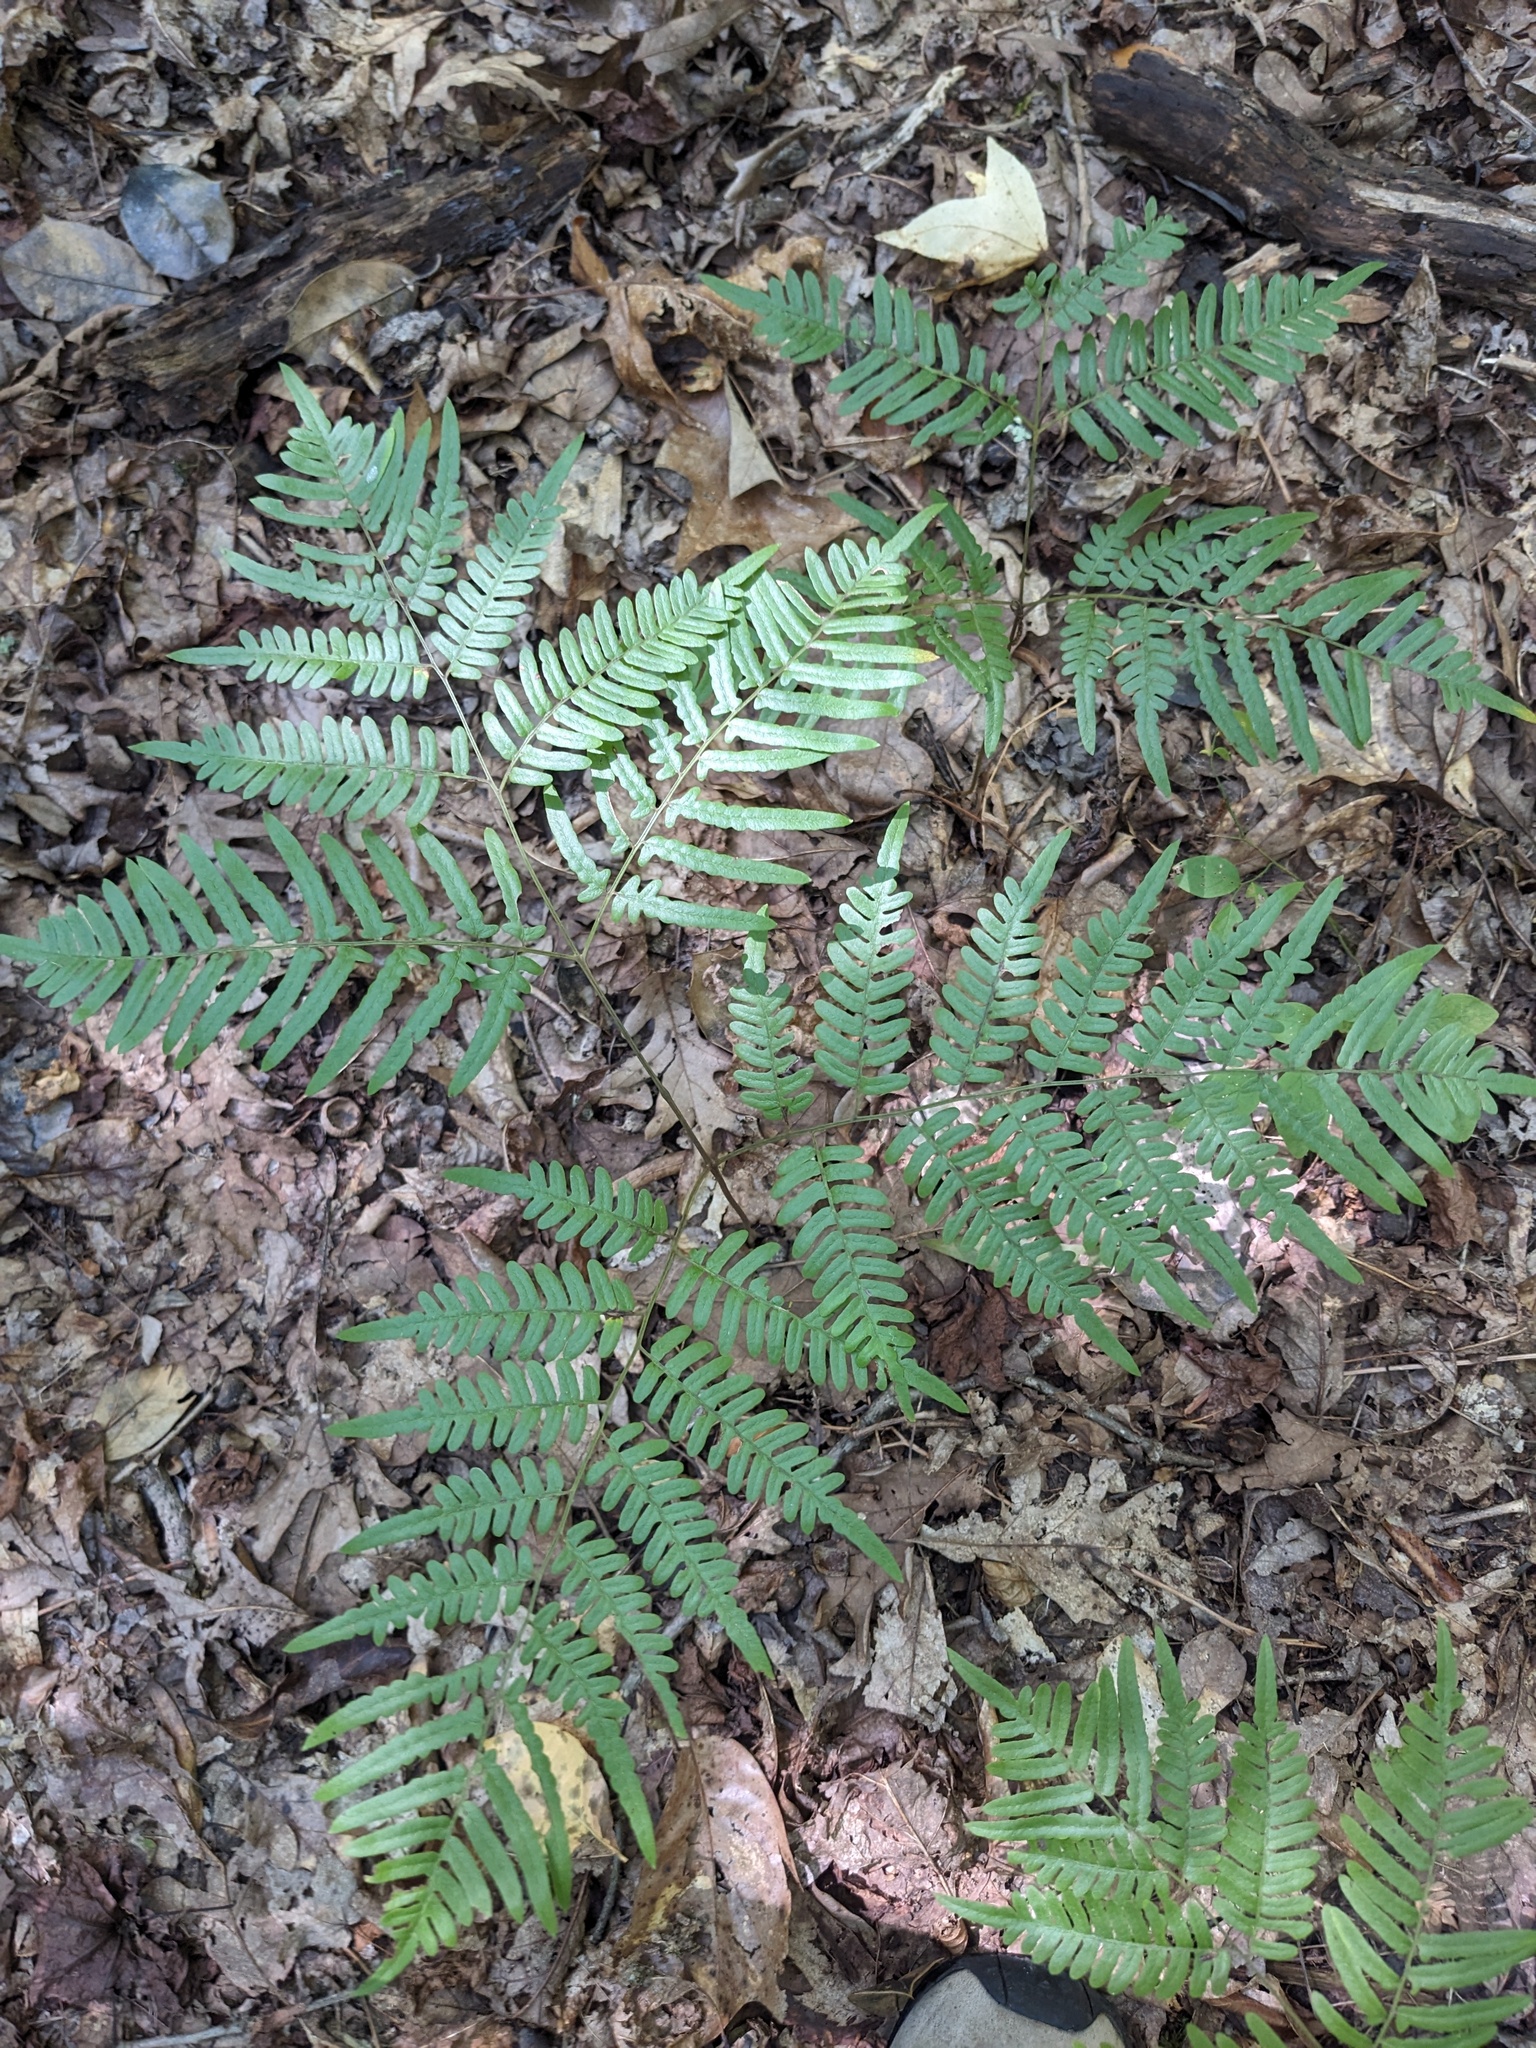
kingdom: Plantae
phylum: Tracheophyta
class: Polypodiopsida
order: Polypodiales
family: Dennstaedtiaceae
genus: Pteridium
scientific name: Pteridium aquilinum
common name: Bracken
